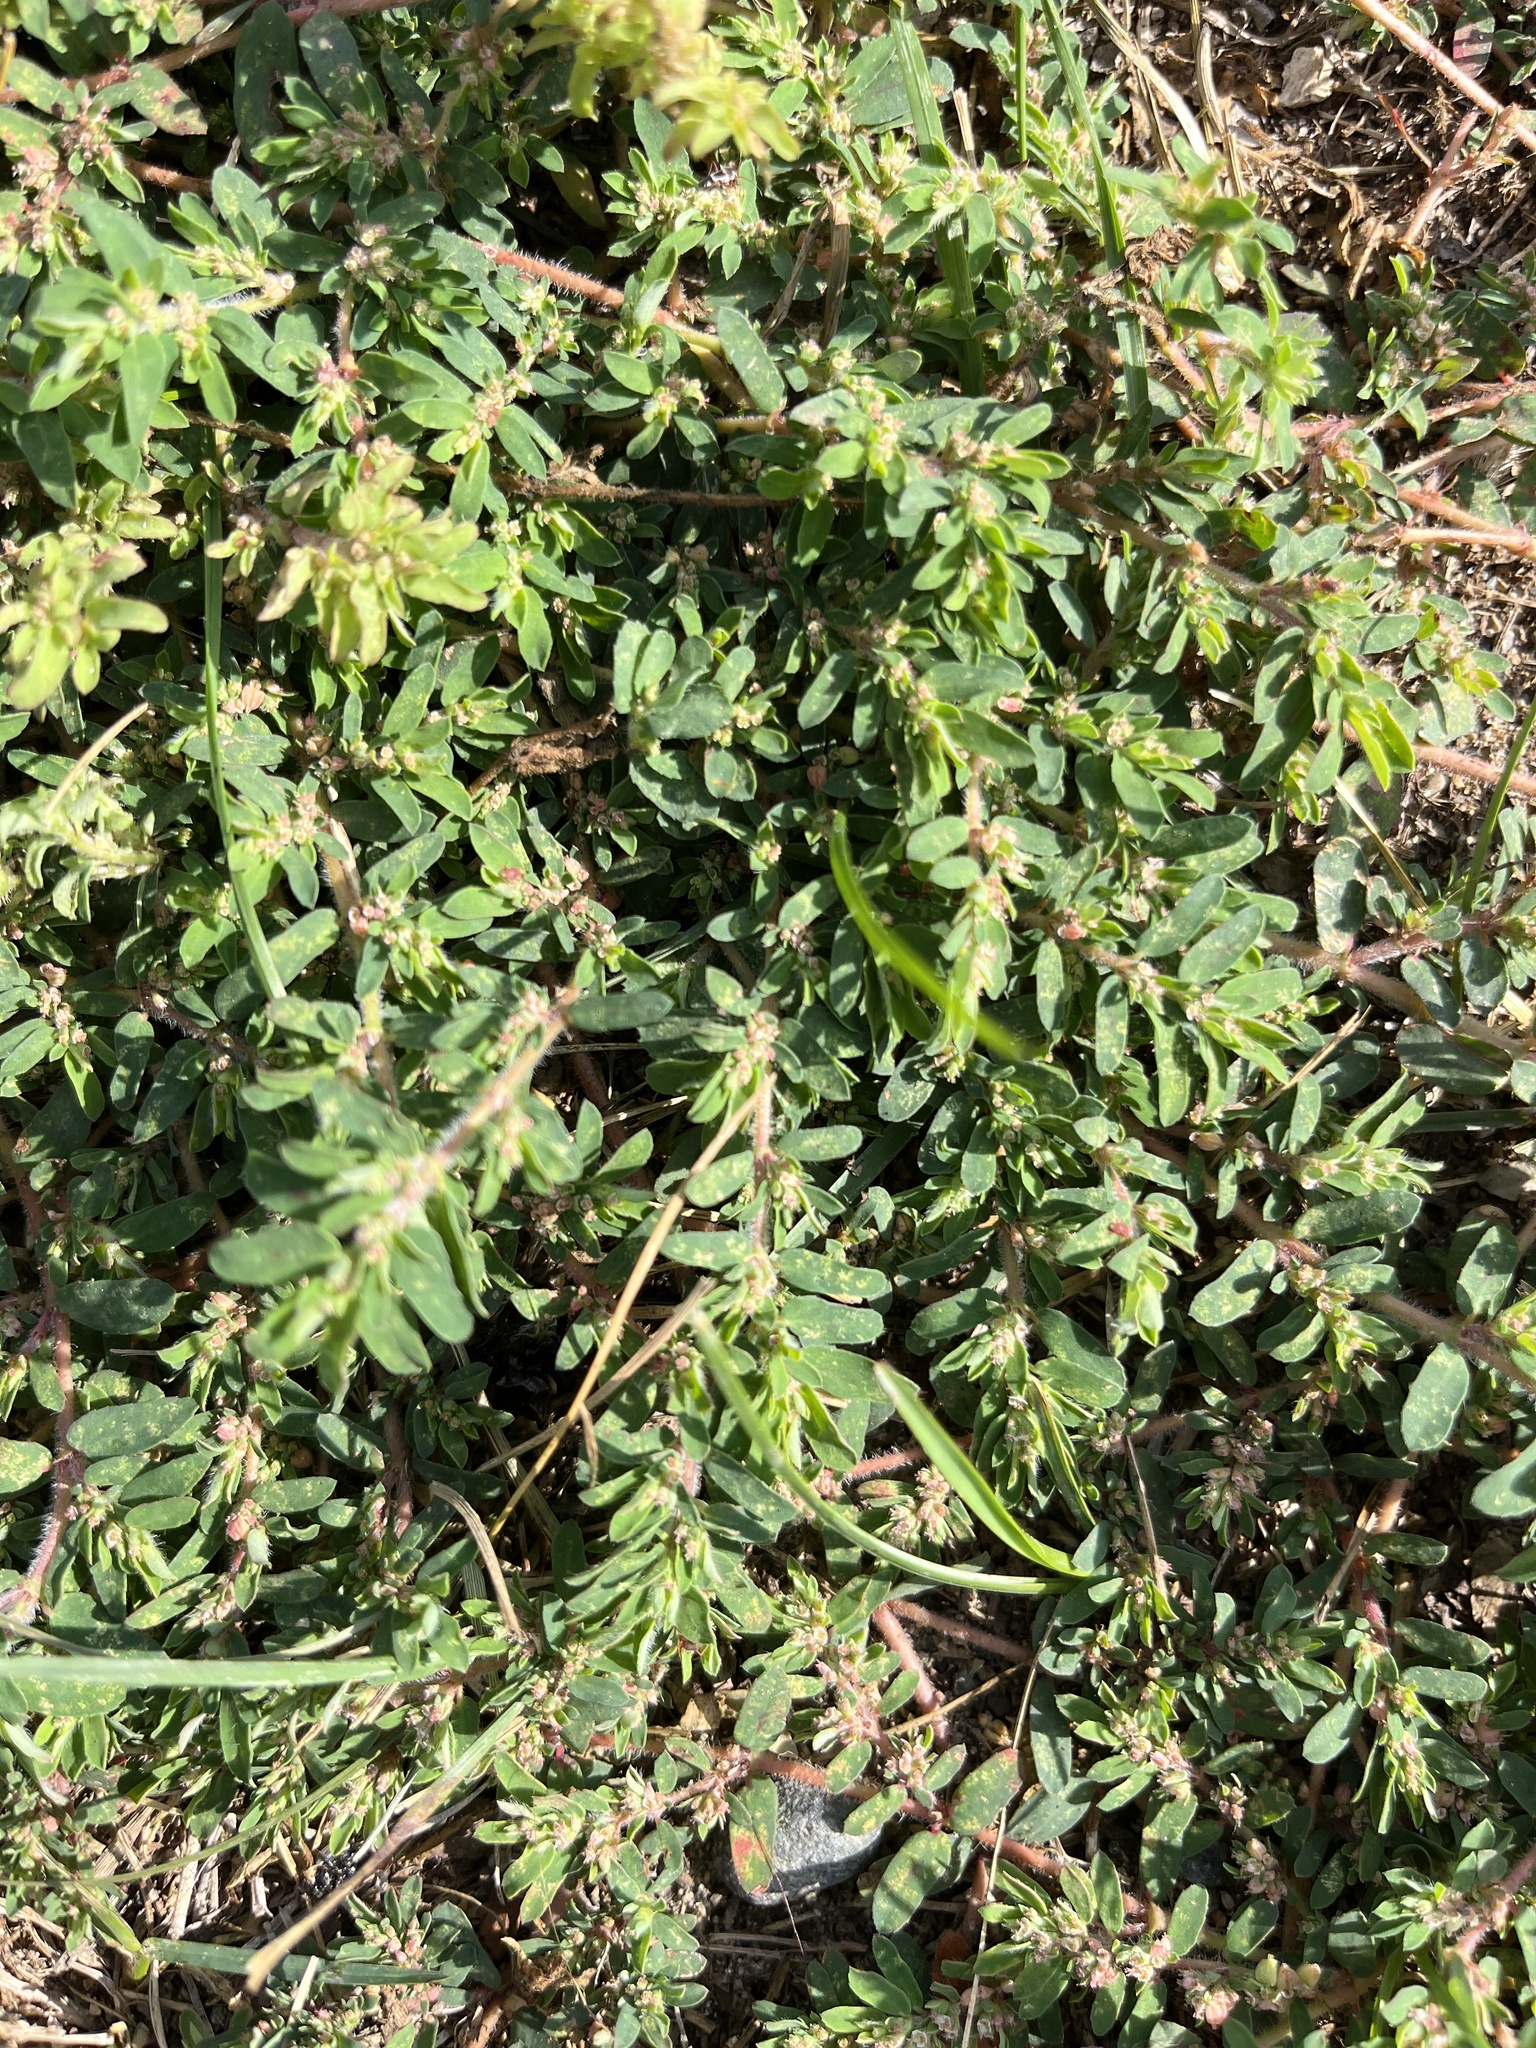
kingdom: Plantae
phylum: Tracheophyta
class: Magnoliopsida
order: Malpighiales
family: Euphorbiaceae
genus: Euphorbia
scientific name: Euphorbia maculata
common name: Spotted spurge
